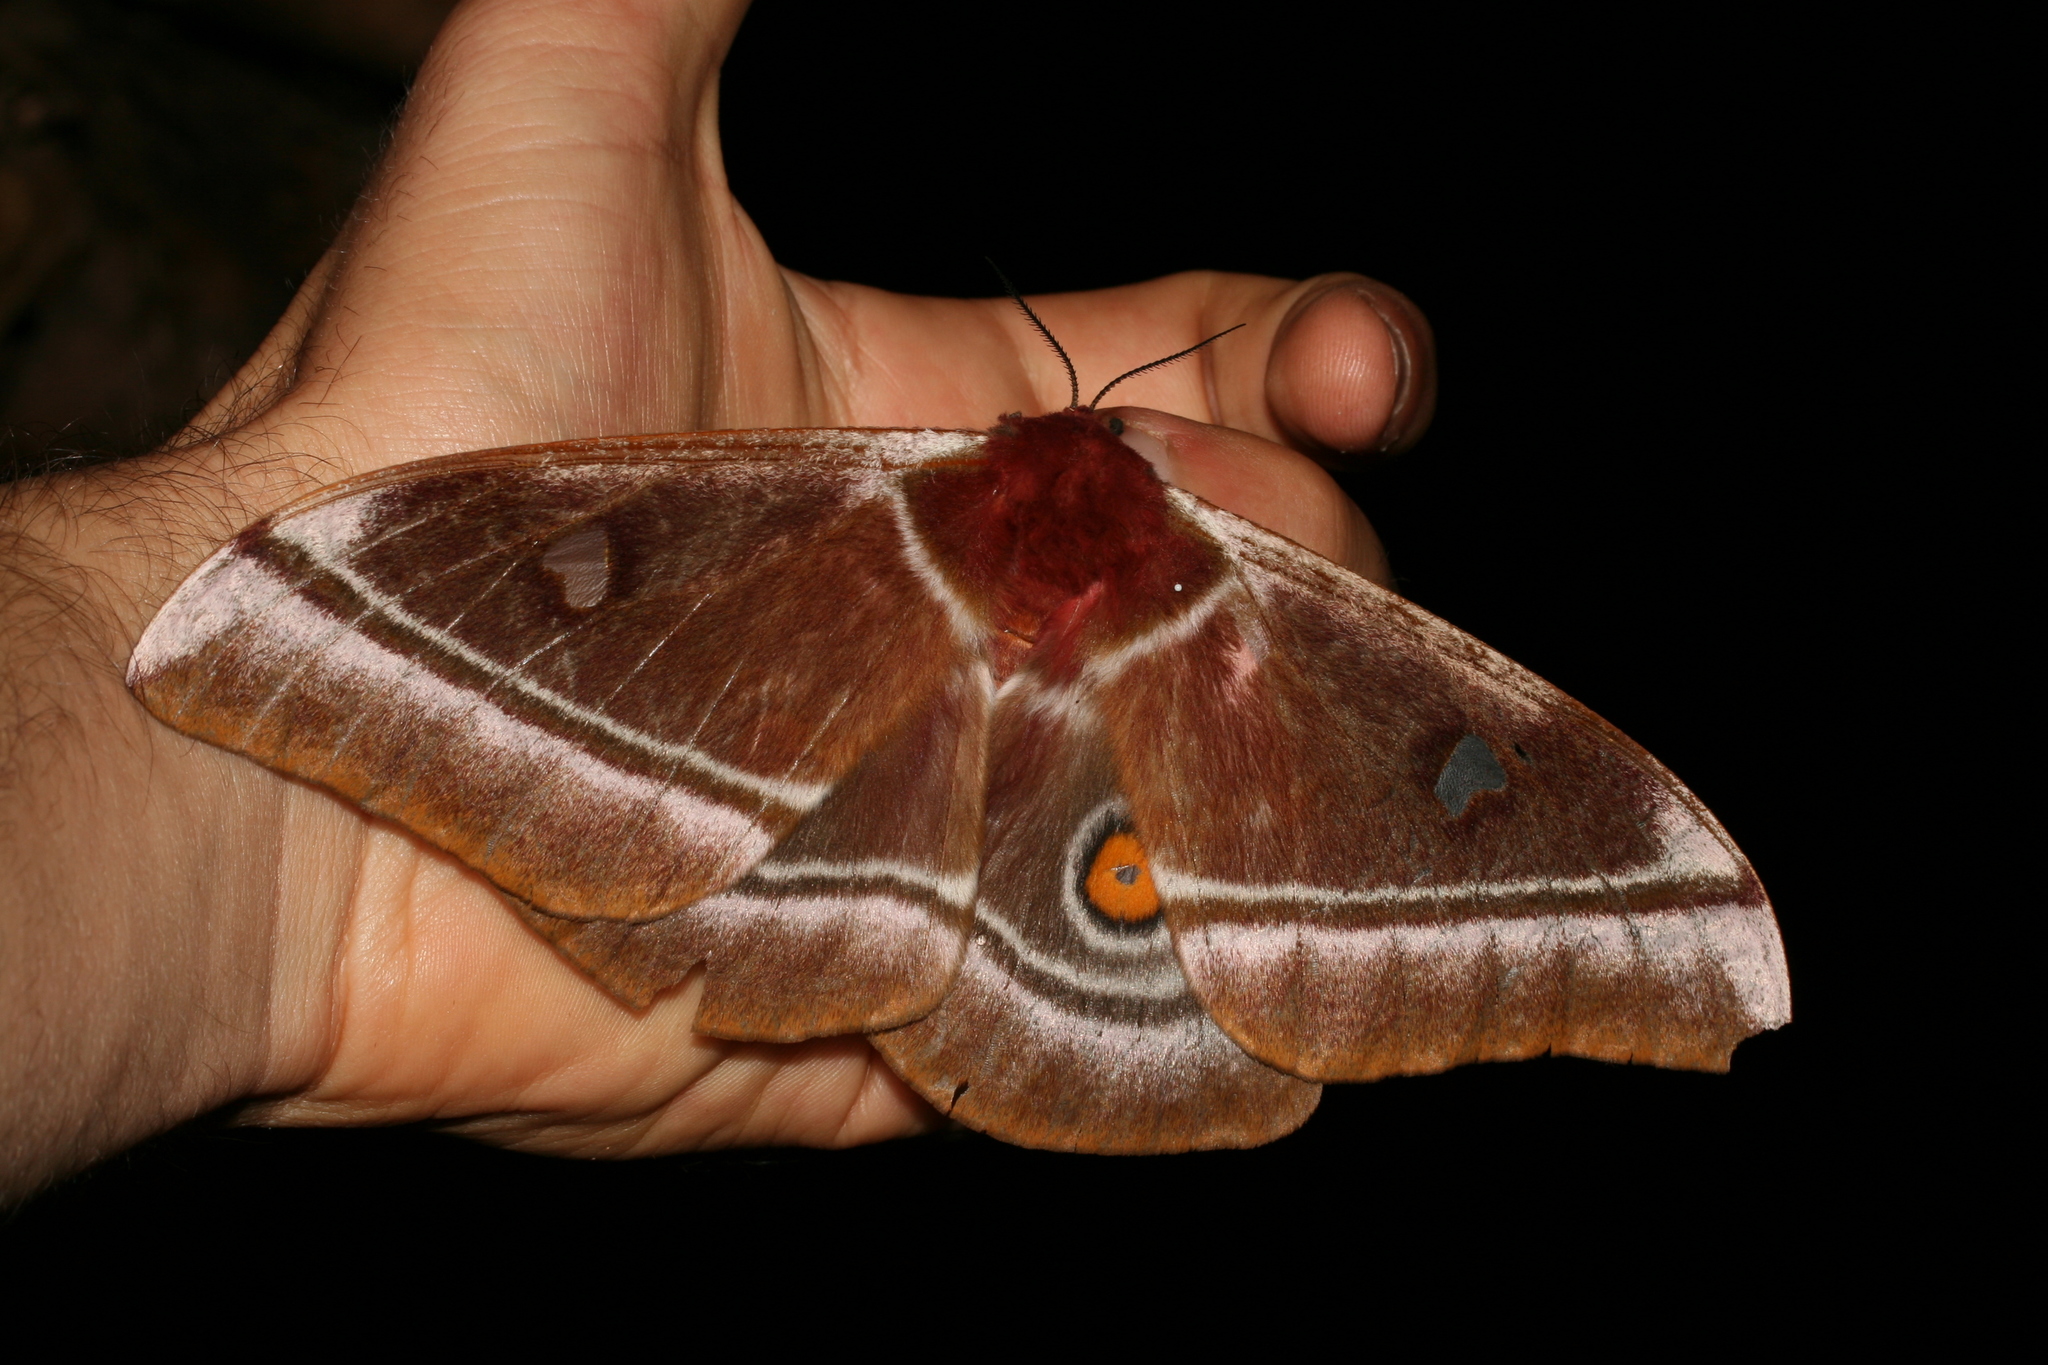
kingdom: Animalia
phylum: Arthropoda
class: Insecta
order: Lepidoptera
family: Saturniidae
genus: Bunaea
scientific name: Bunaea aslauga
